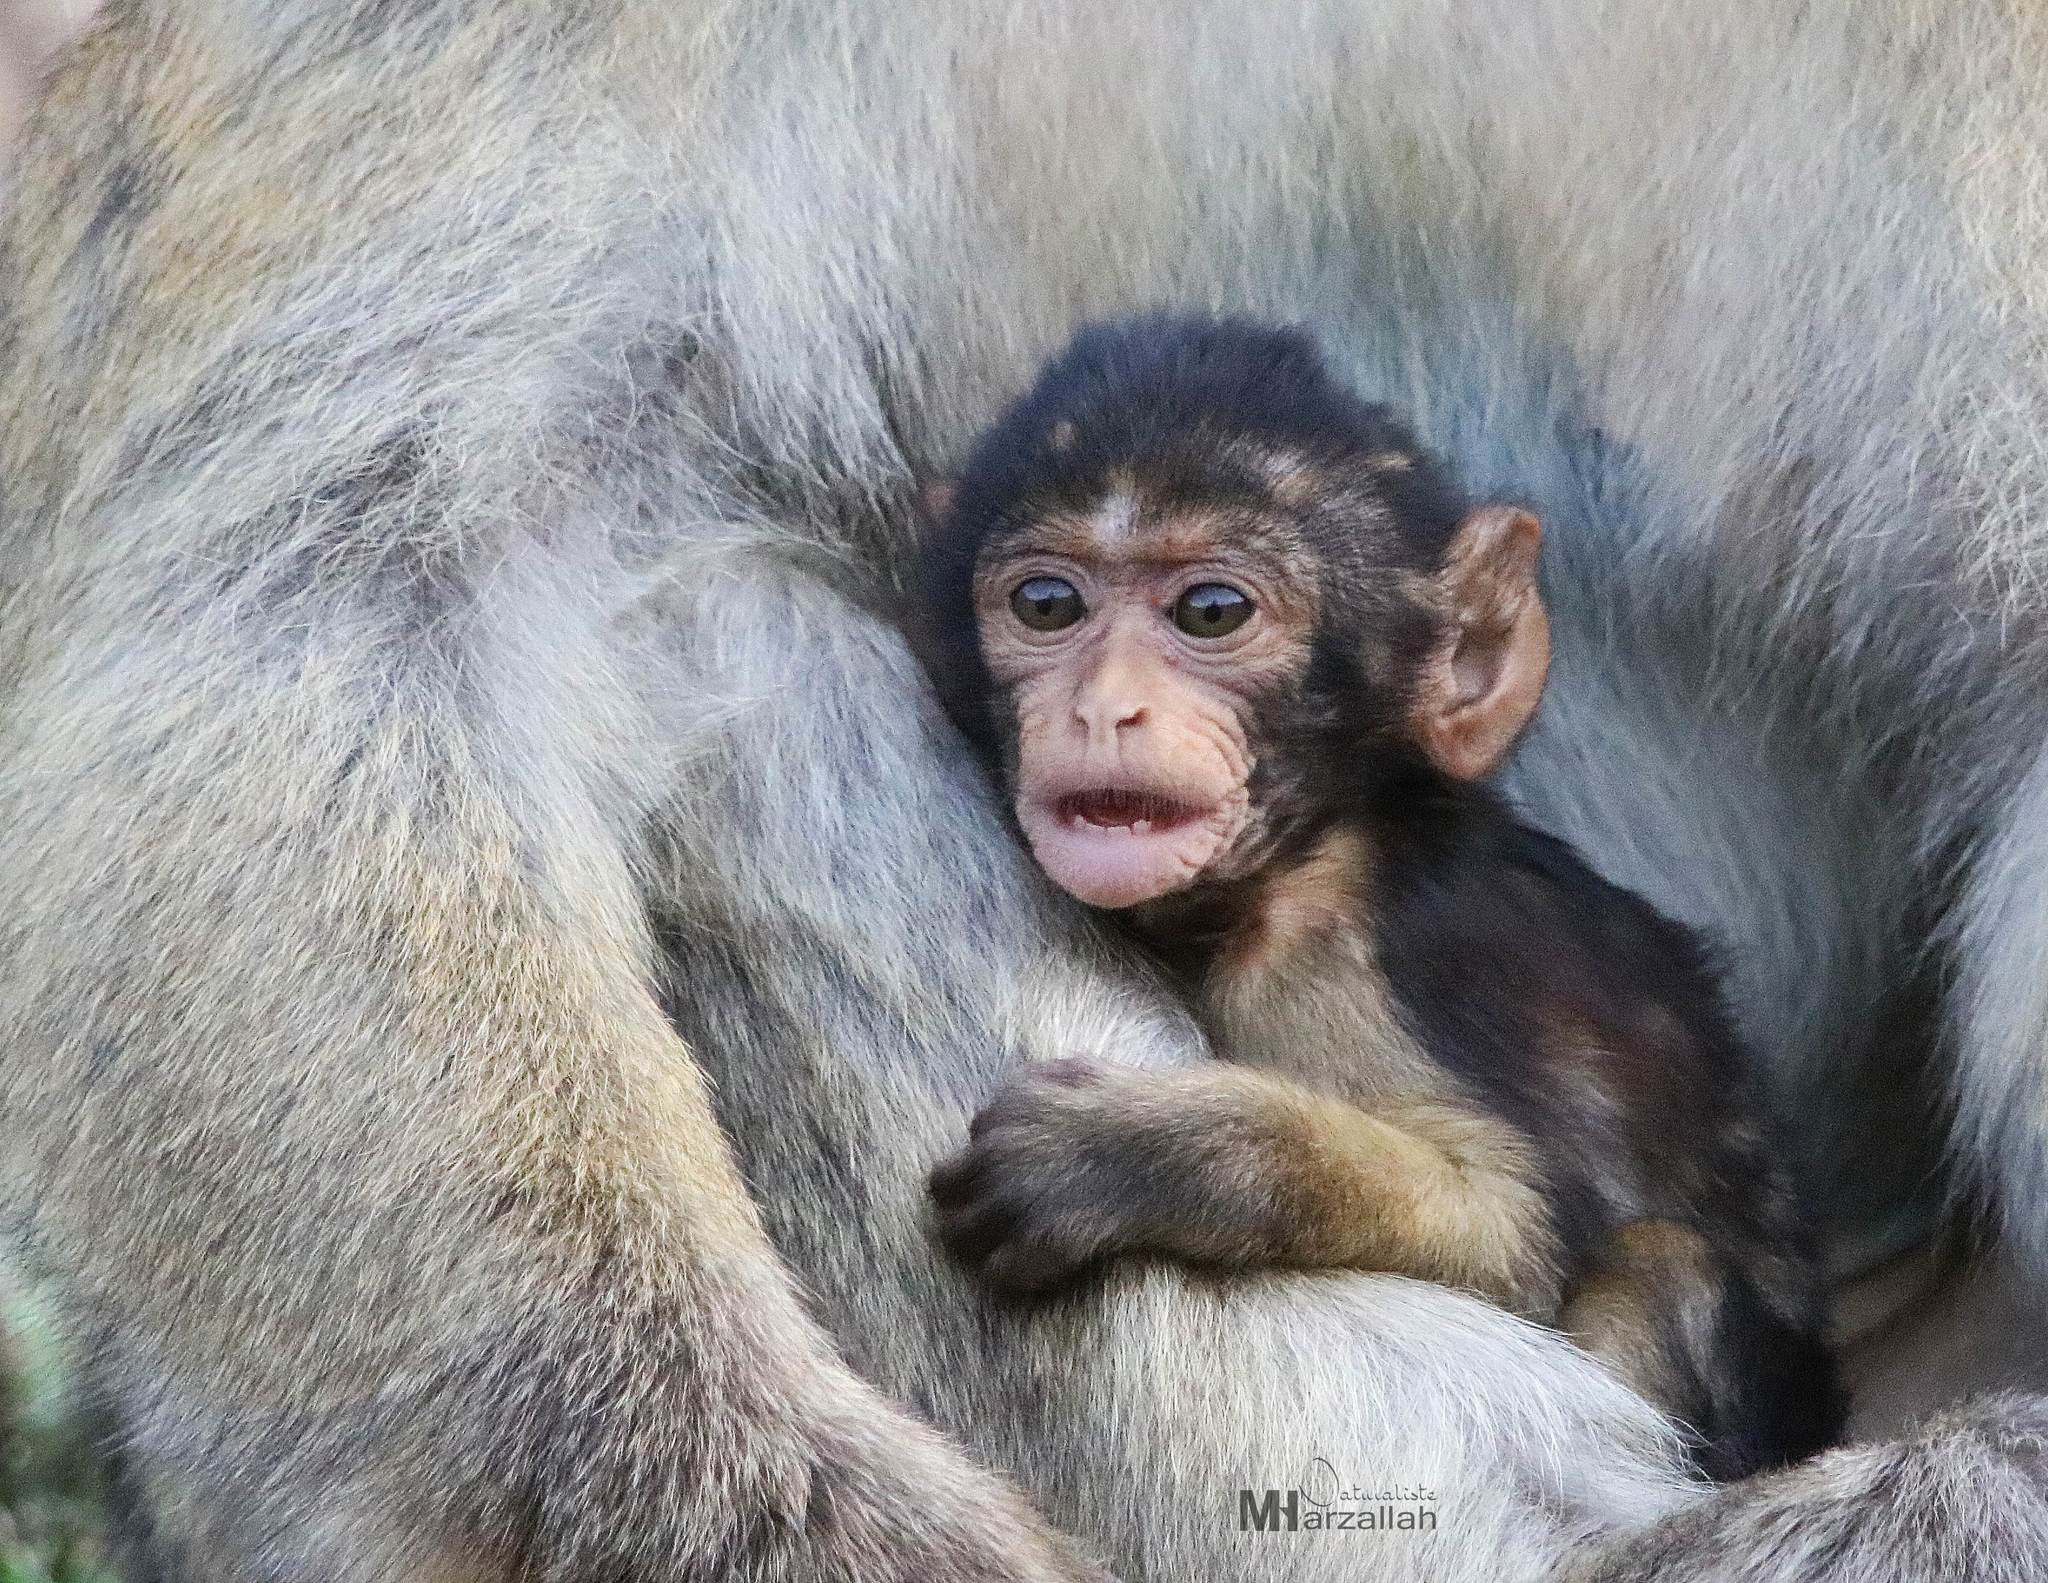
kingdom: Animalia
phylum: Chordata
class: Mammalia
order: Primates
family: Cercopithecidae
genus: Macaca
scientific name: Macaca sylvanus
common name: Barbary macaque
